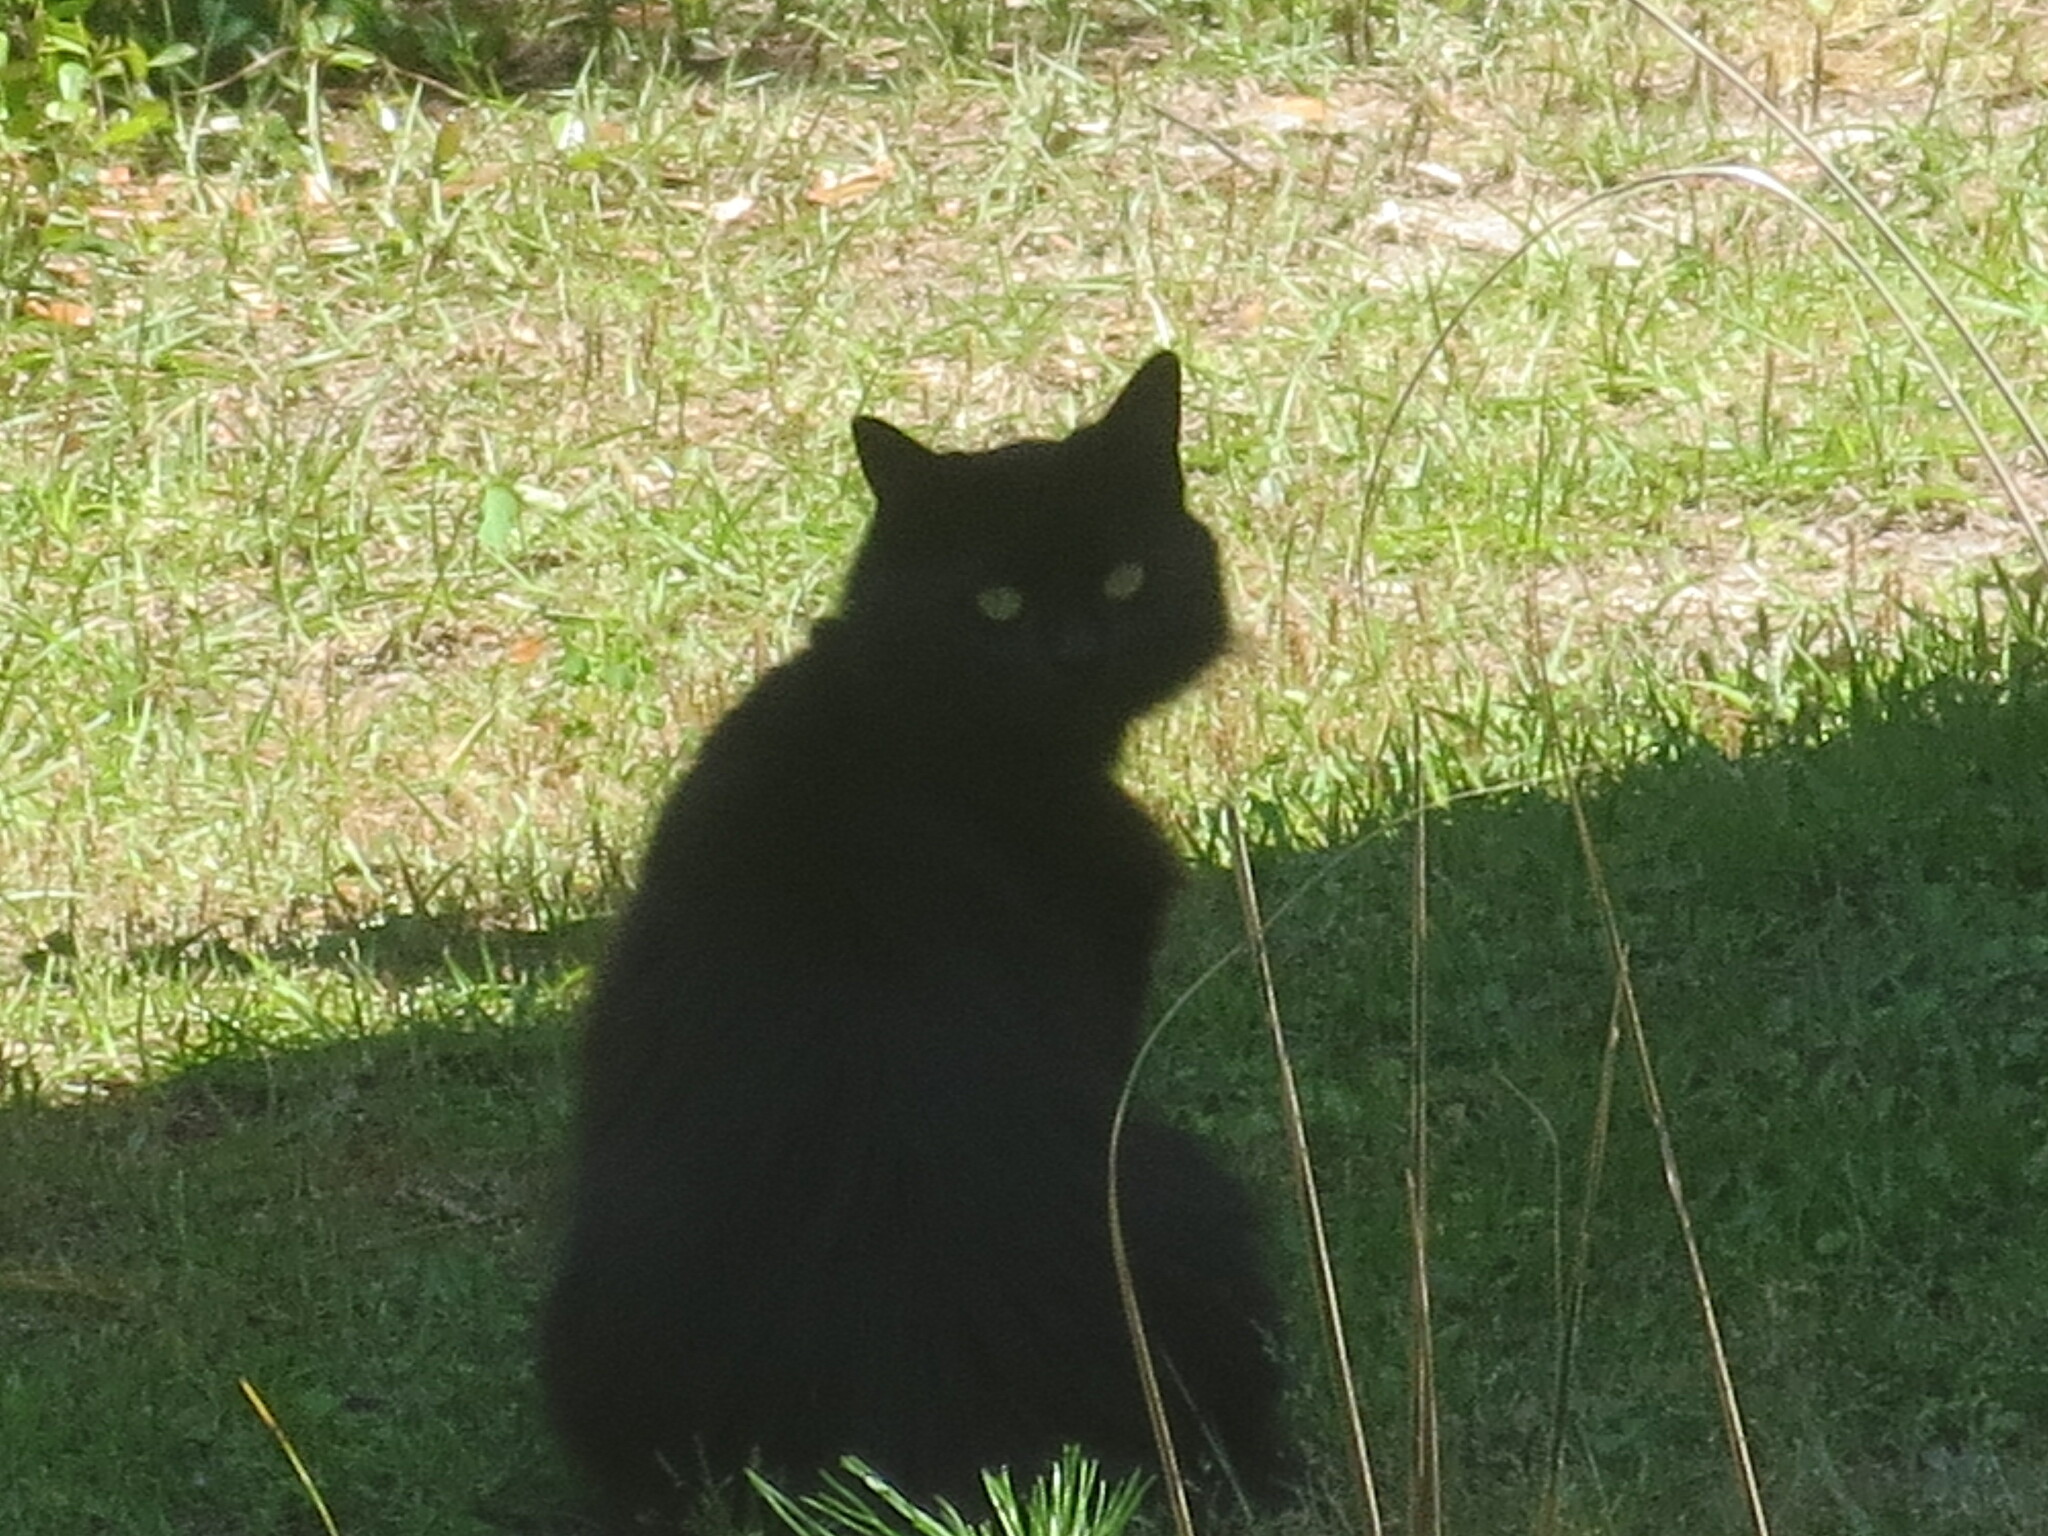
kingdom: Animalia
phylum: Chordata
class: Mammalia
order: Carnivora
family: Felidae
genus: Felis
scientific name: Felis catus
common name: Domestic cat
